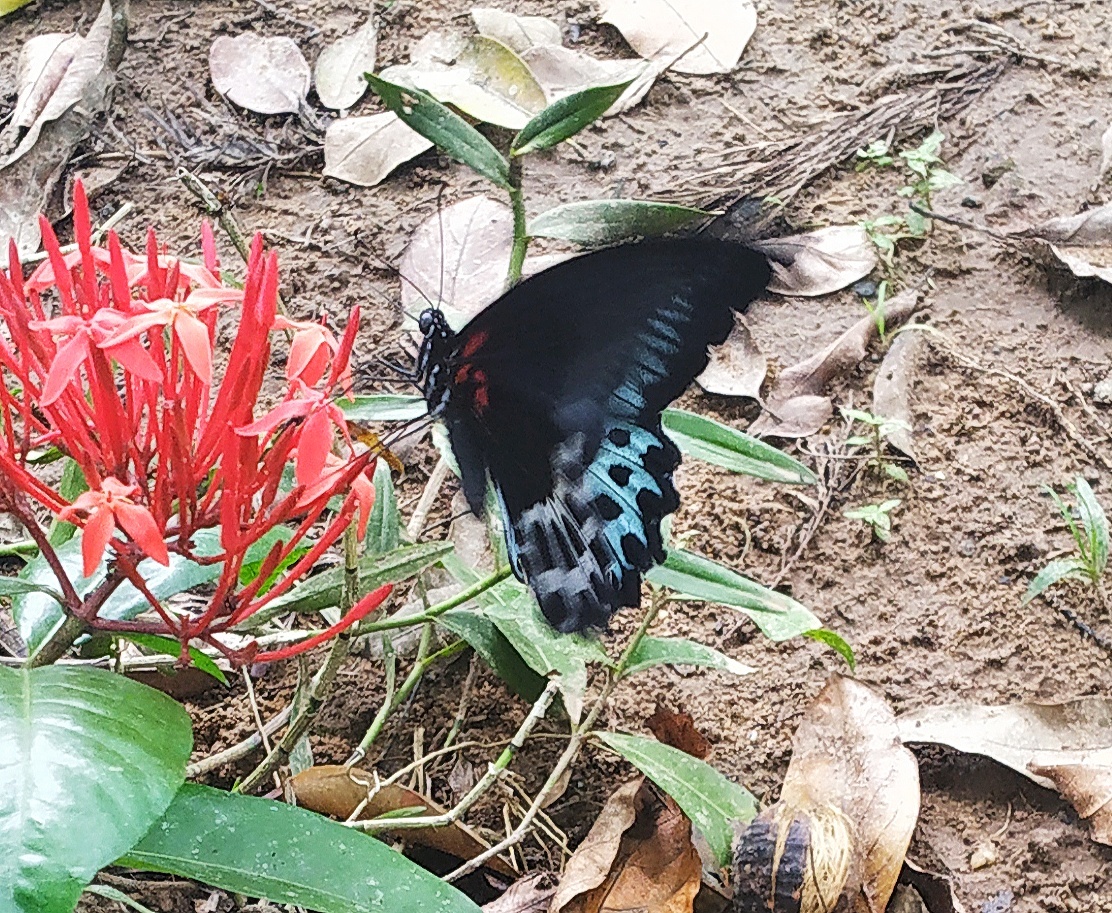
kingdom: Animalia
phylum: Arthropoda
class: Insecta
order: Lepidoptera
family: Papilionidae
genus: Papilio
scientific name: Papilio memnon
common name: Great mormon
